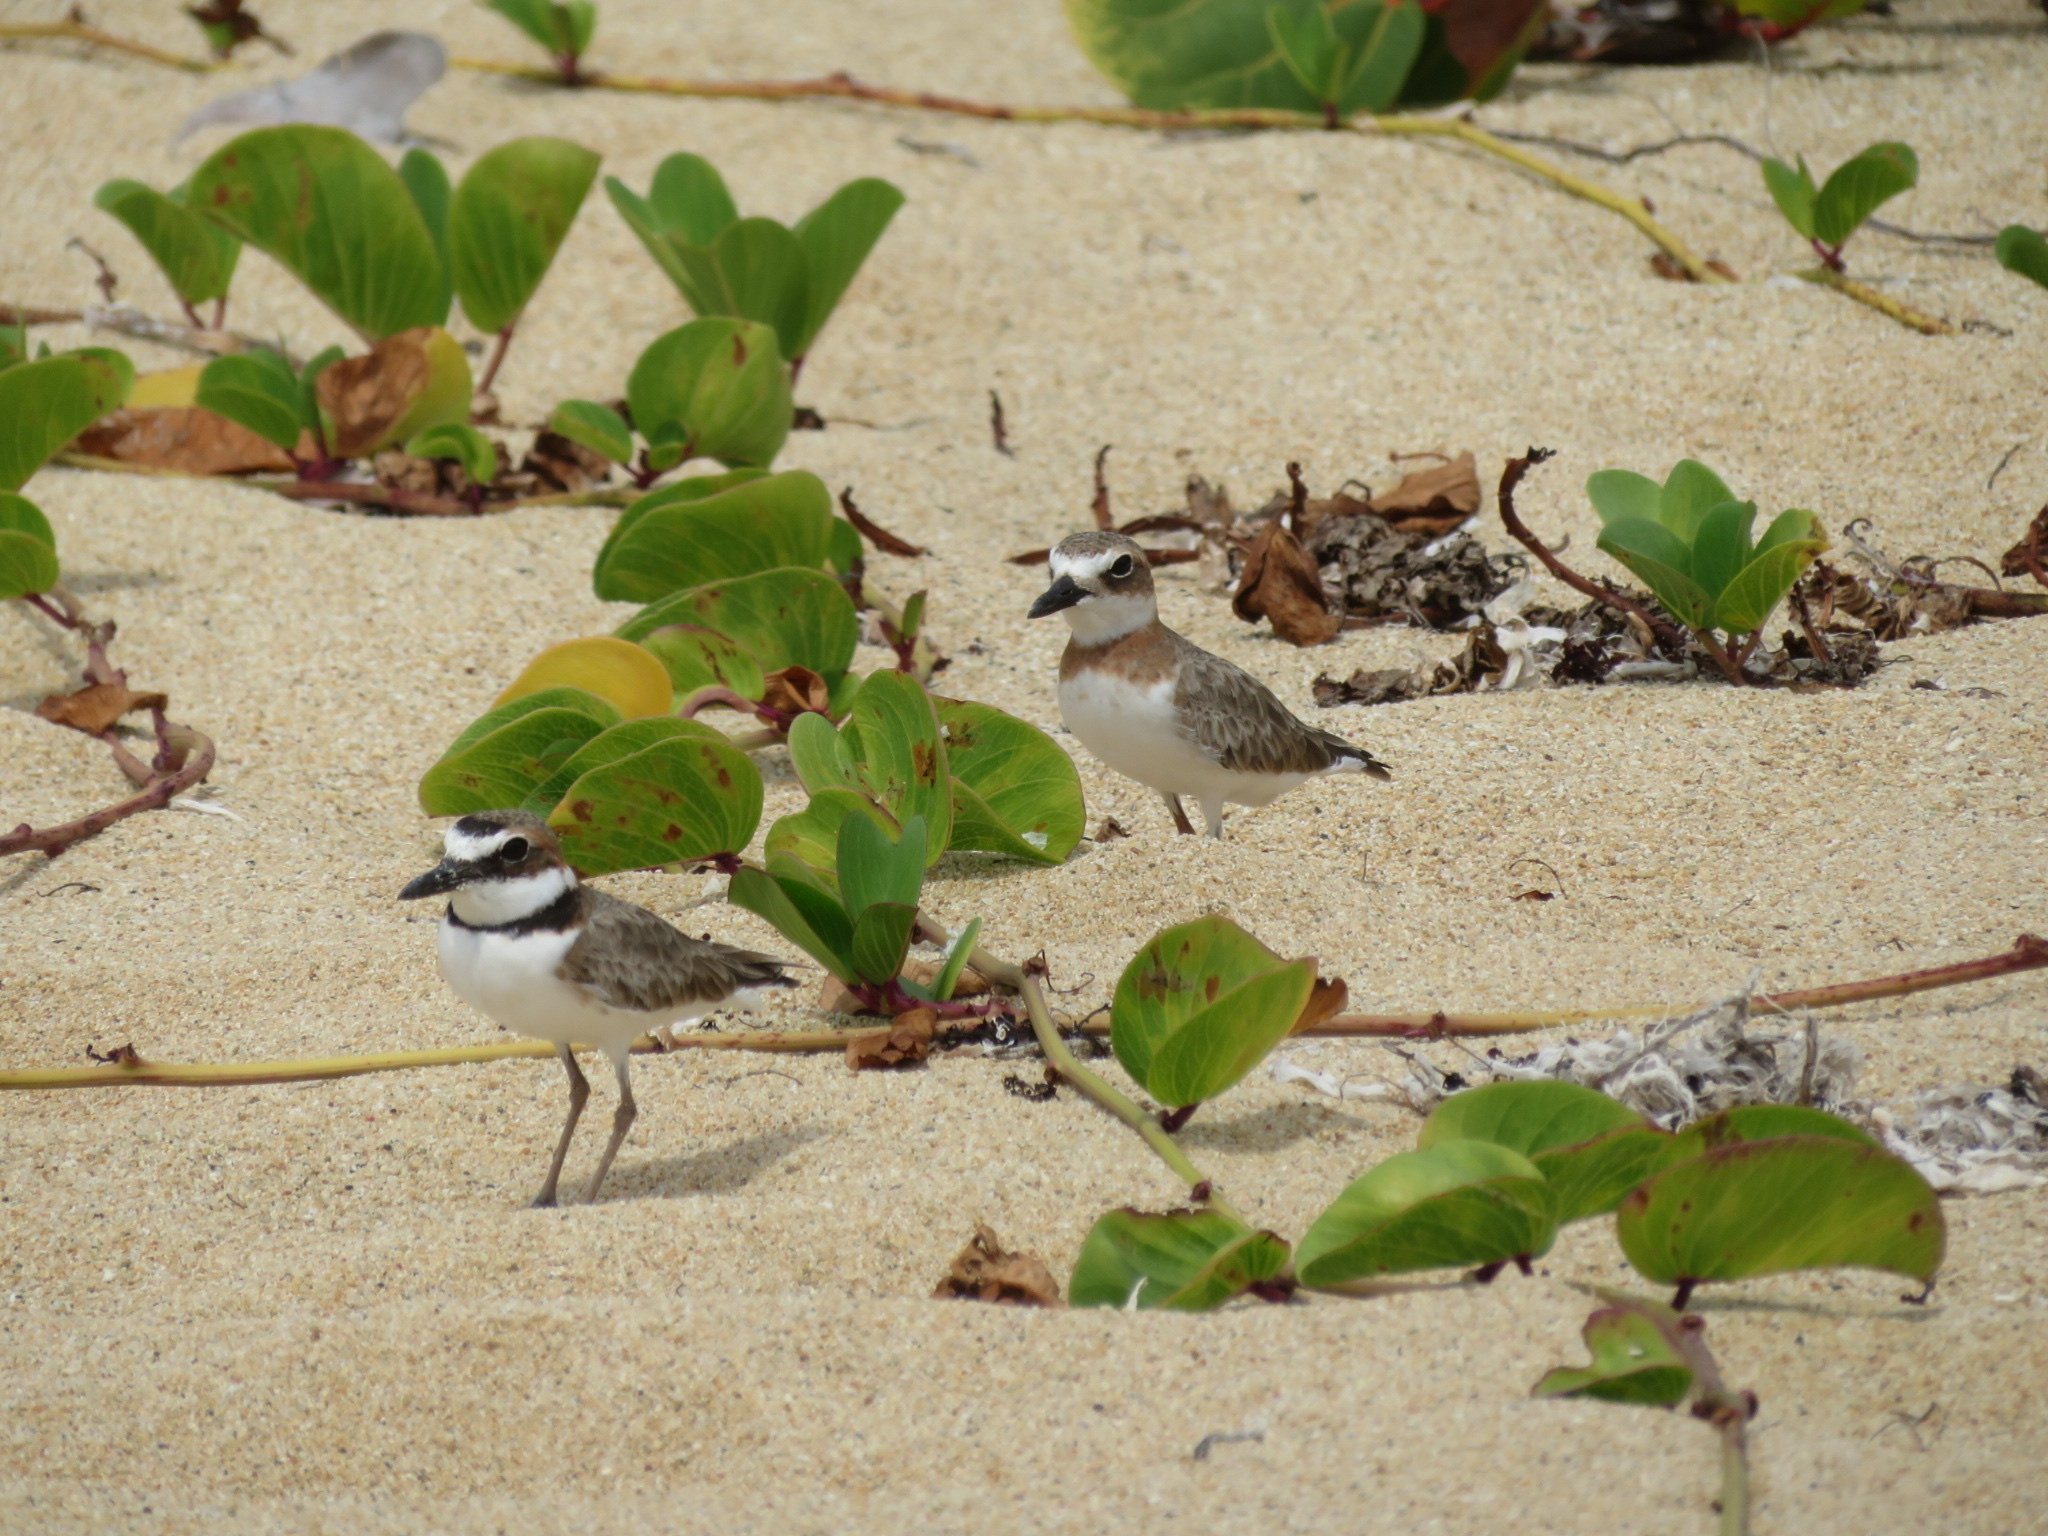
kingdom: Animalia
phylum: Chordata
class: Aves
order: Charadriiformes
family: Charadriidae
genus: Anarhynchus
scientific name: Anarhynchus
